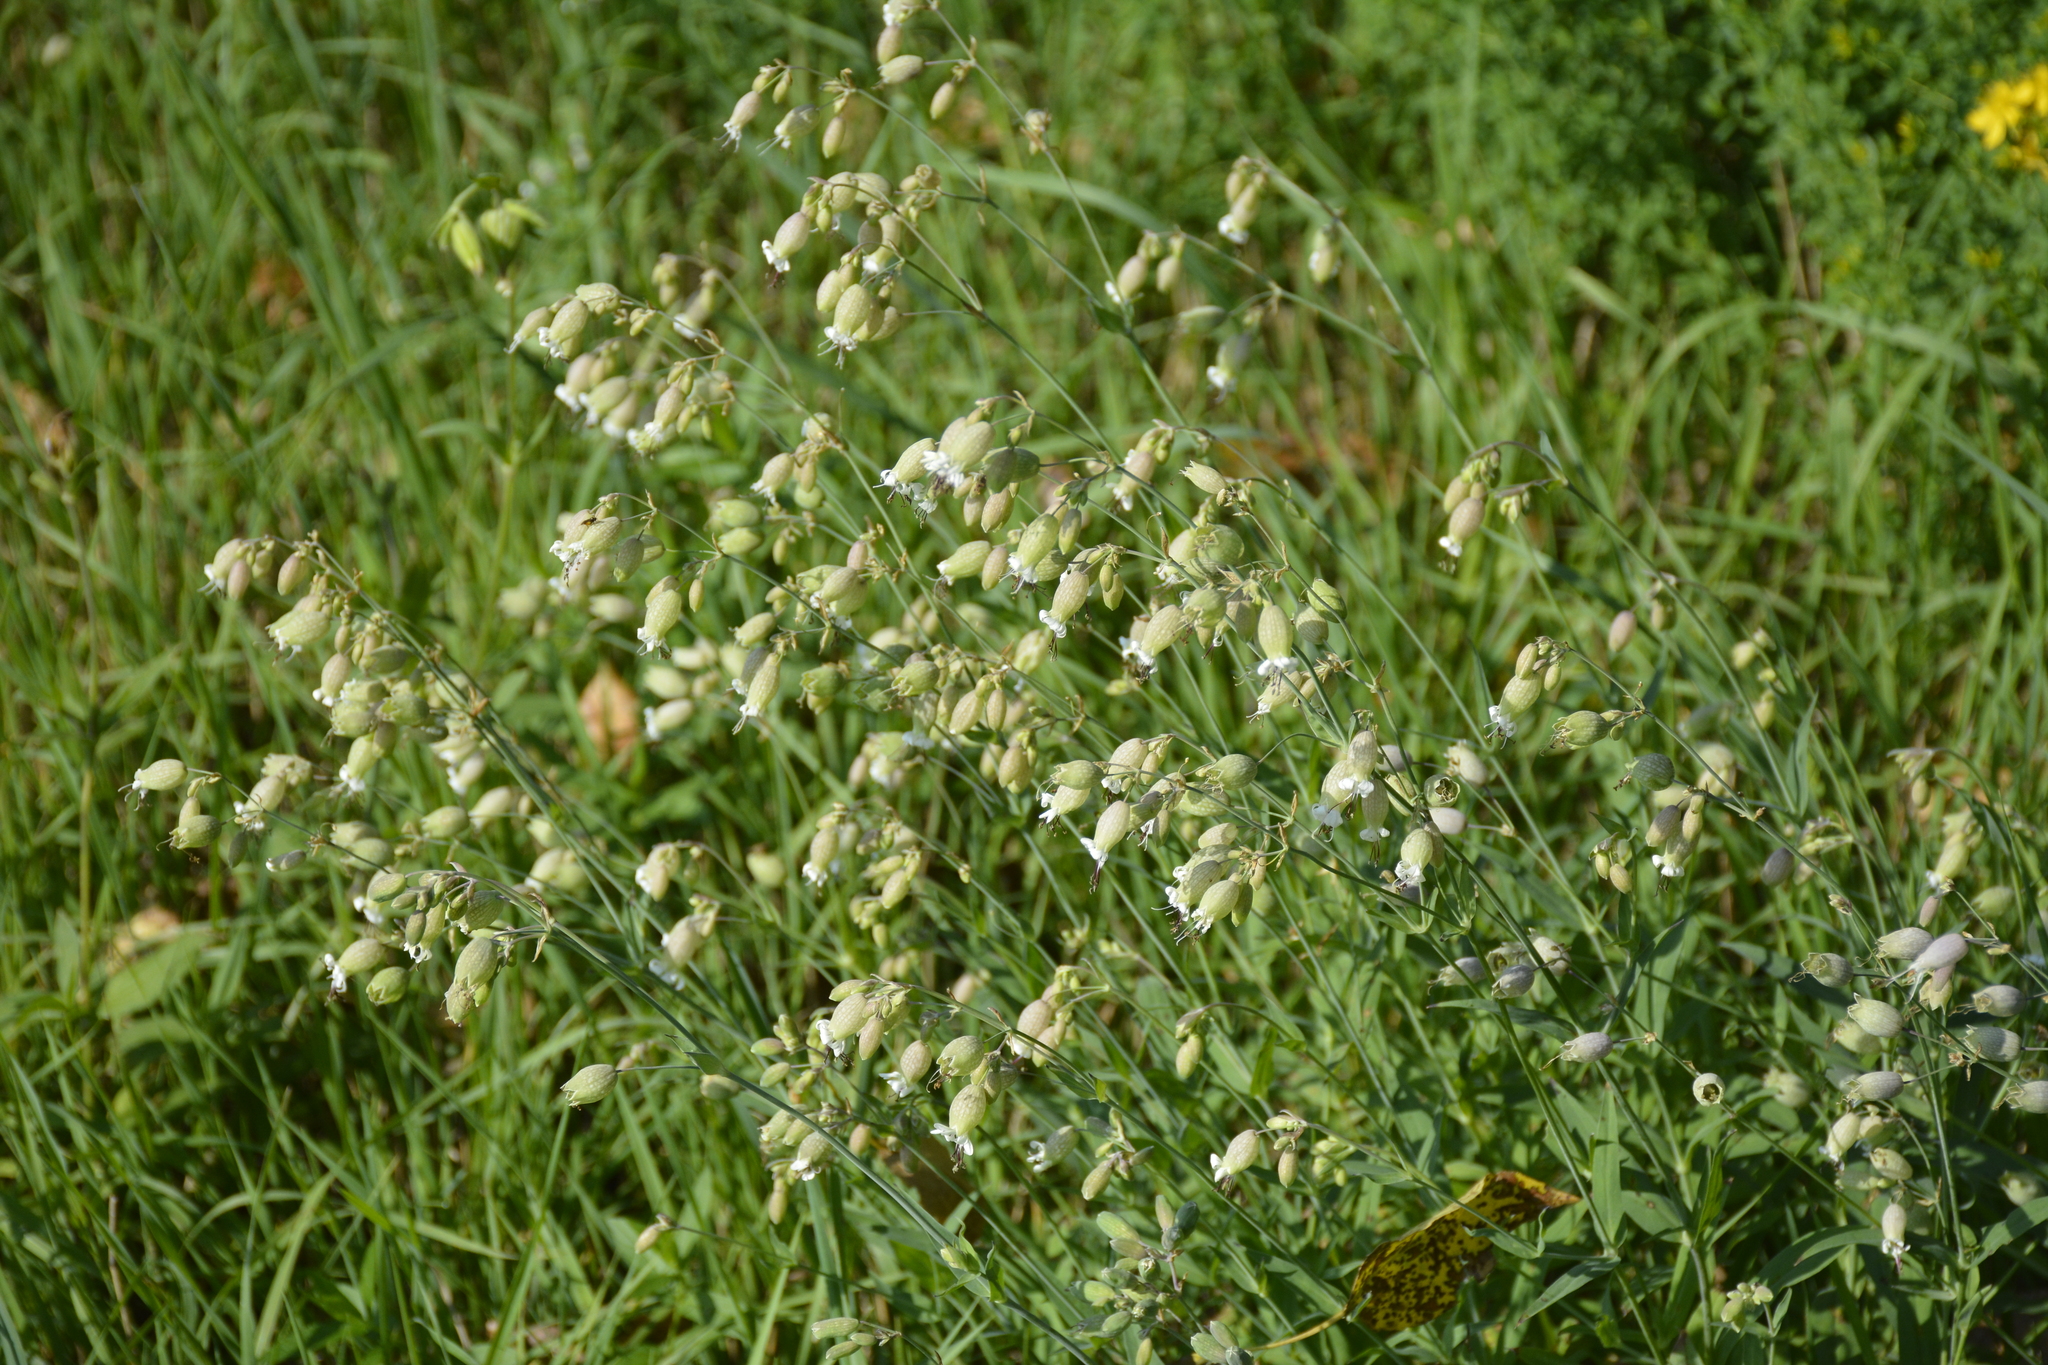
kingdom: Plantae
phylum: Tracheophyta
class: Magnoliopsida
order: Caryophyllales
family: Caryophyllaceae
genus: Silene
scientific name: Silene vulgaris
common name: Bladder campion
